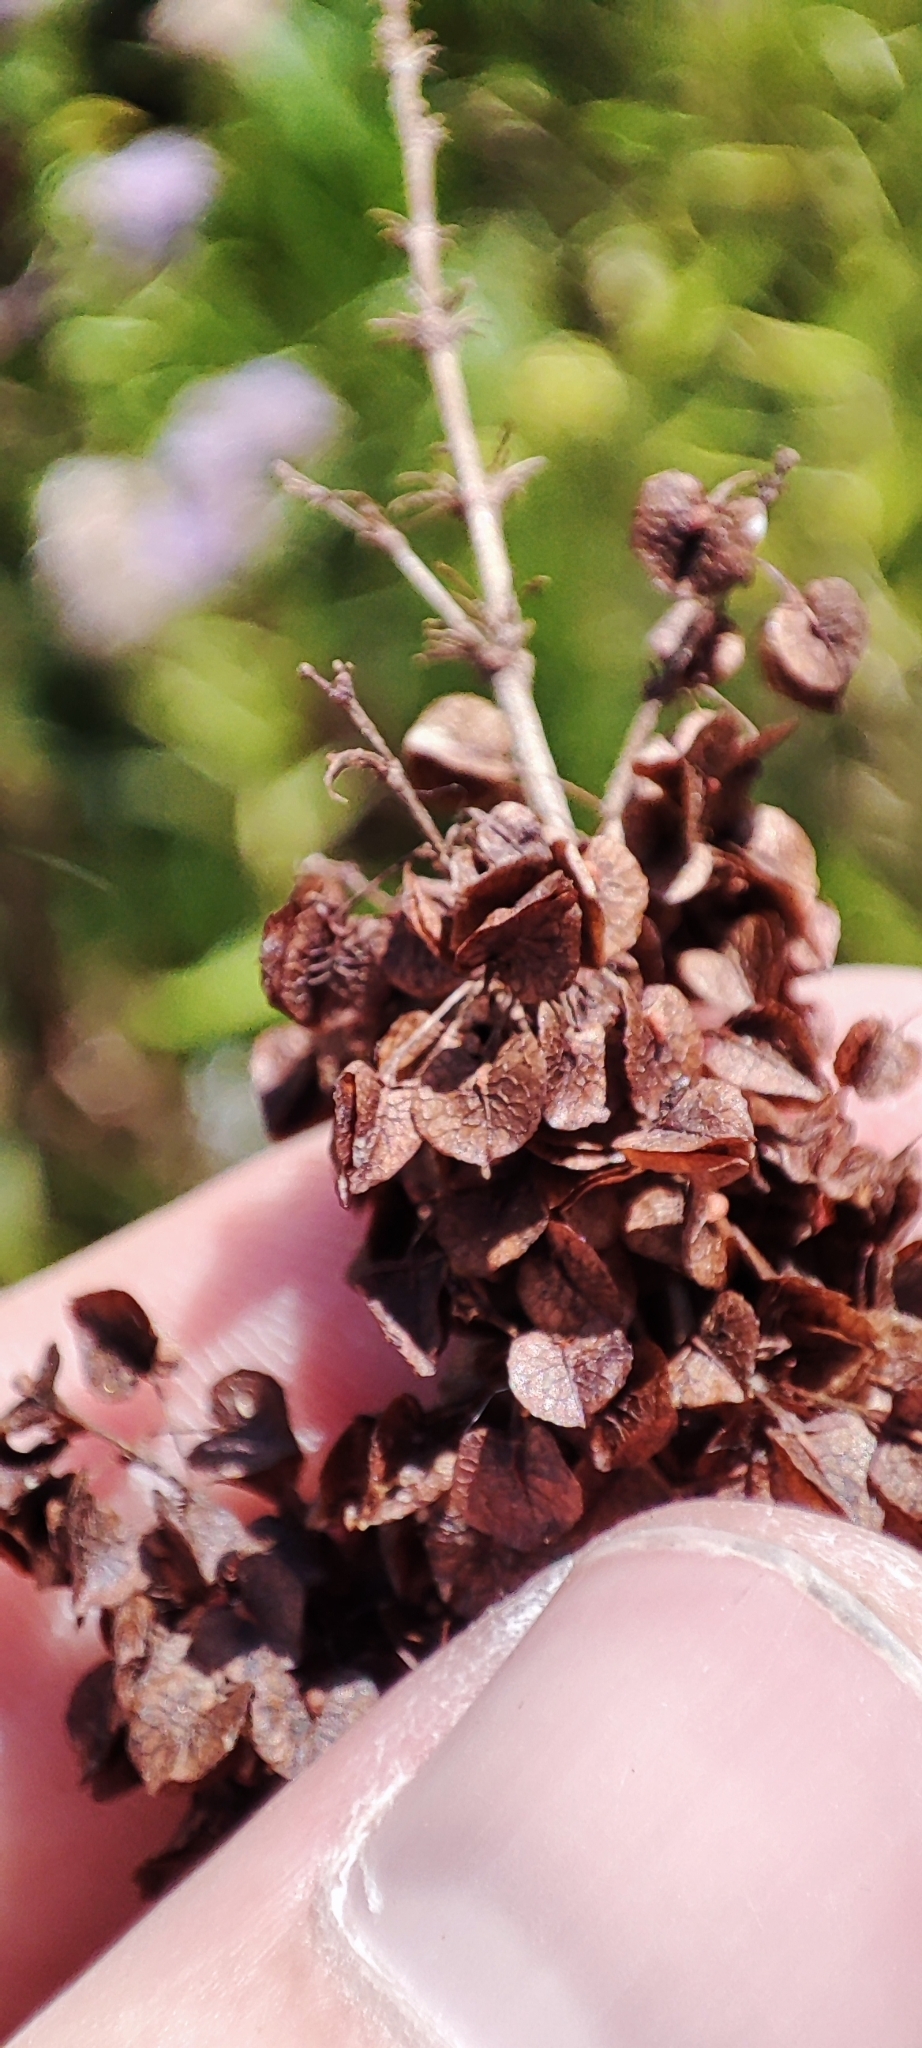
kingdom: Plantae
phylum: Tracheophyta
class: Magnoliopsida
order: Caryophyllales
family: Polygonaceae
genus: Rumex
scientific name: Rumex pseudonatronatus
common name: Field dock
